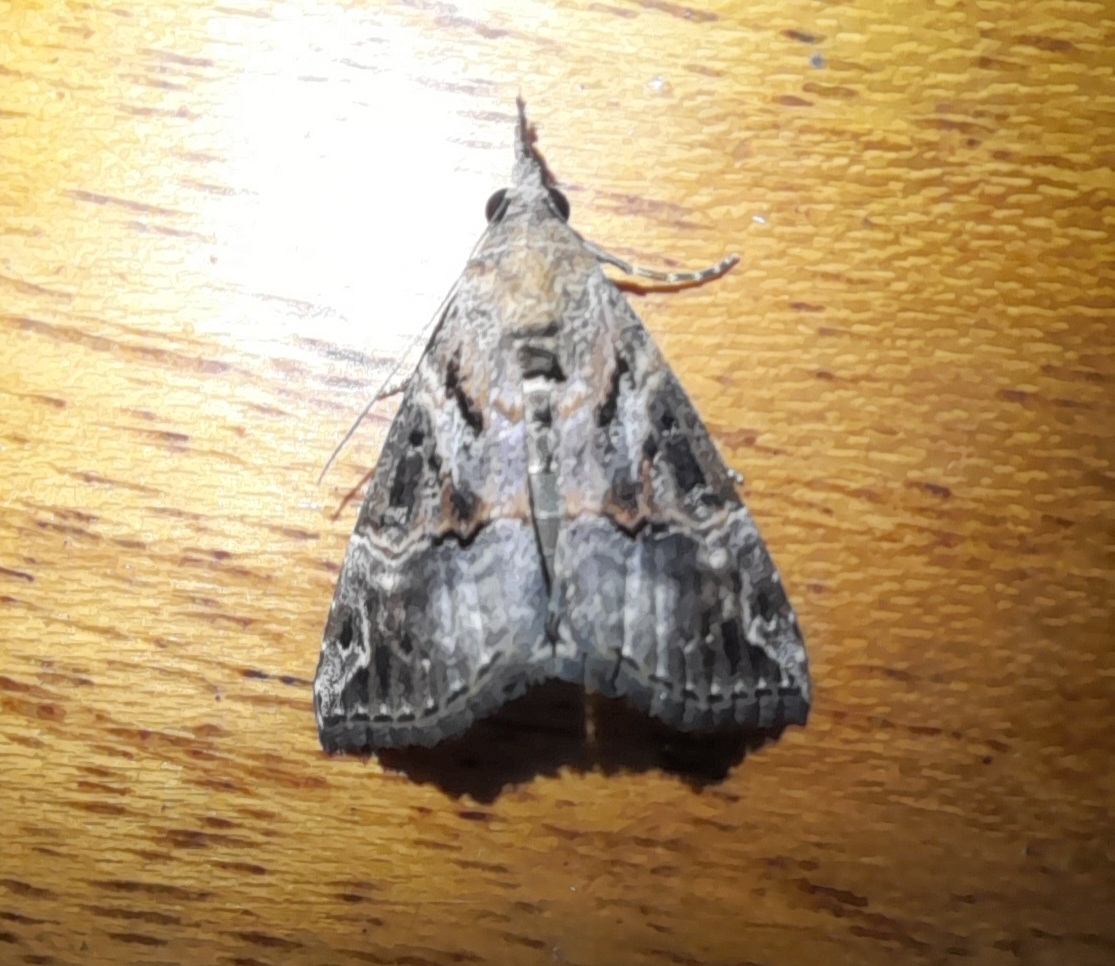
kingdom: Animalia
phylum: Arthropoda
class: Insecta
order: Lepidoptera
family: Erebidae
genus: Hypena
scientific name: Hypena commixtalis
